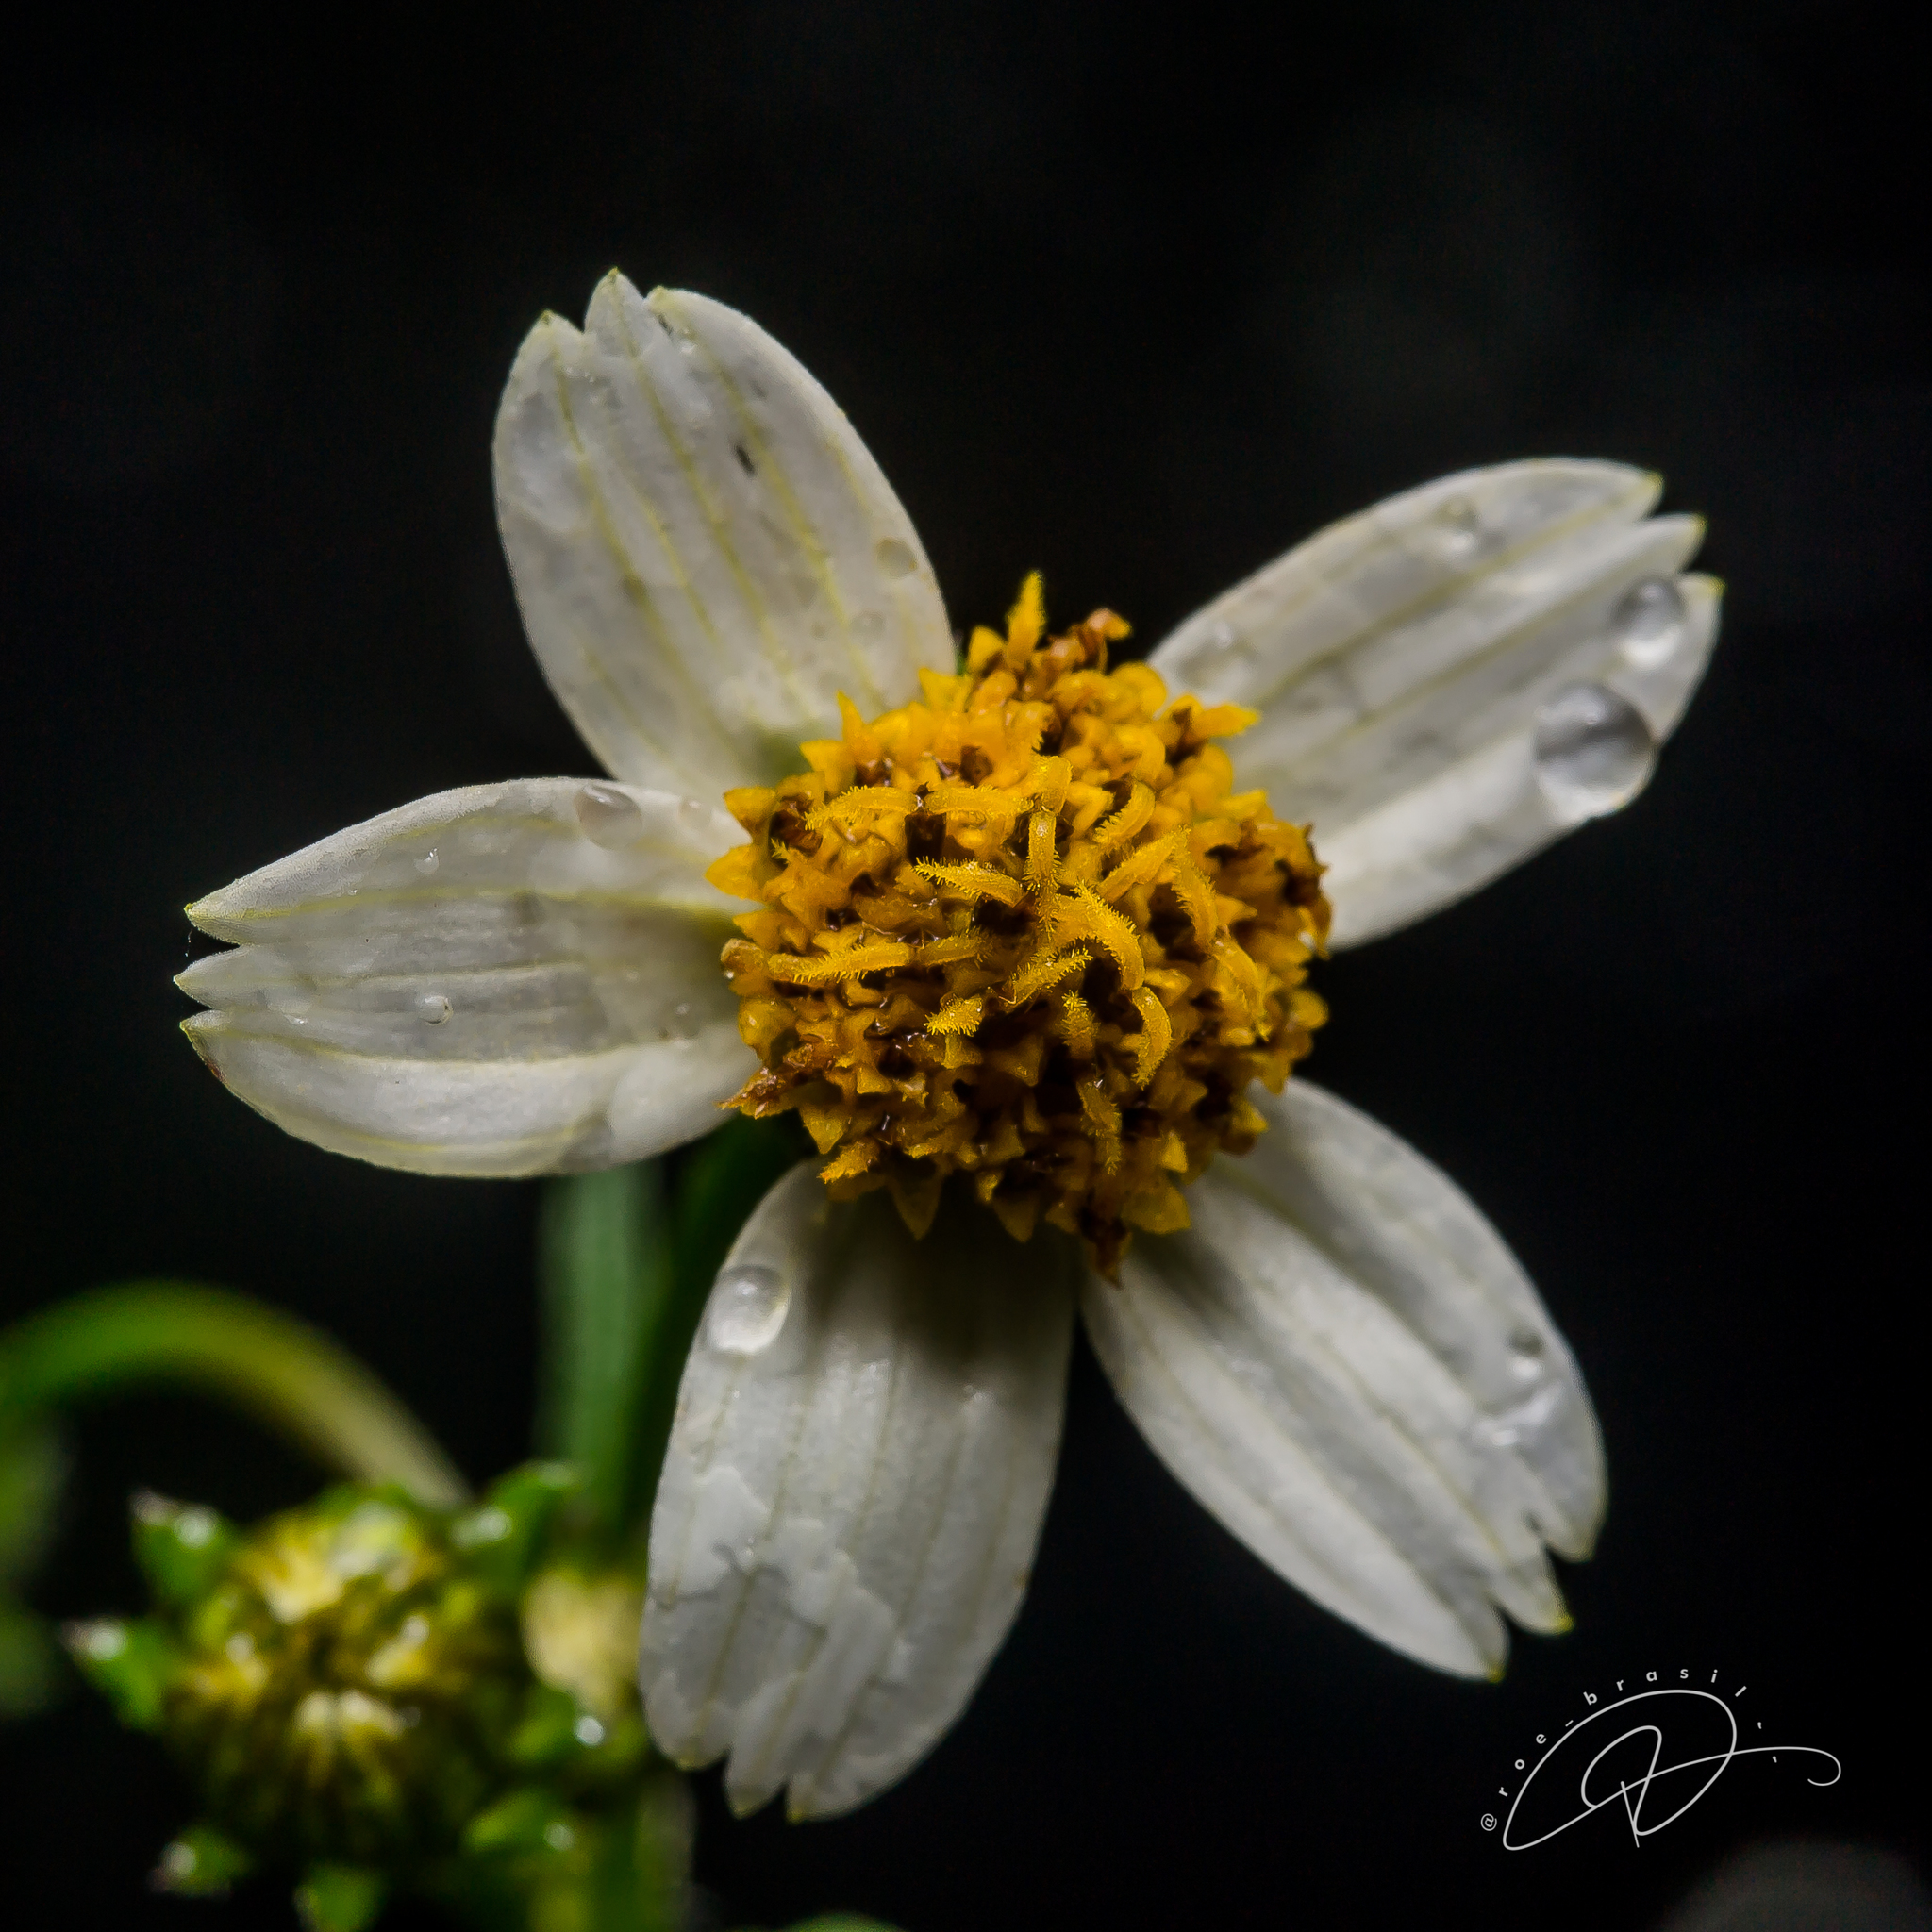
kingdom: Plantae
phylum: Tracheophyta
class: Magnoliopsida
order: Asterales
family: Asteraceae
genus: Bidens
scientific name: Bidens alba
